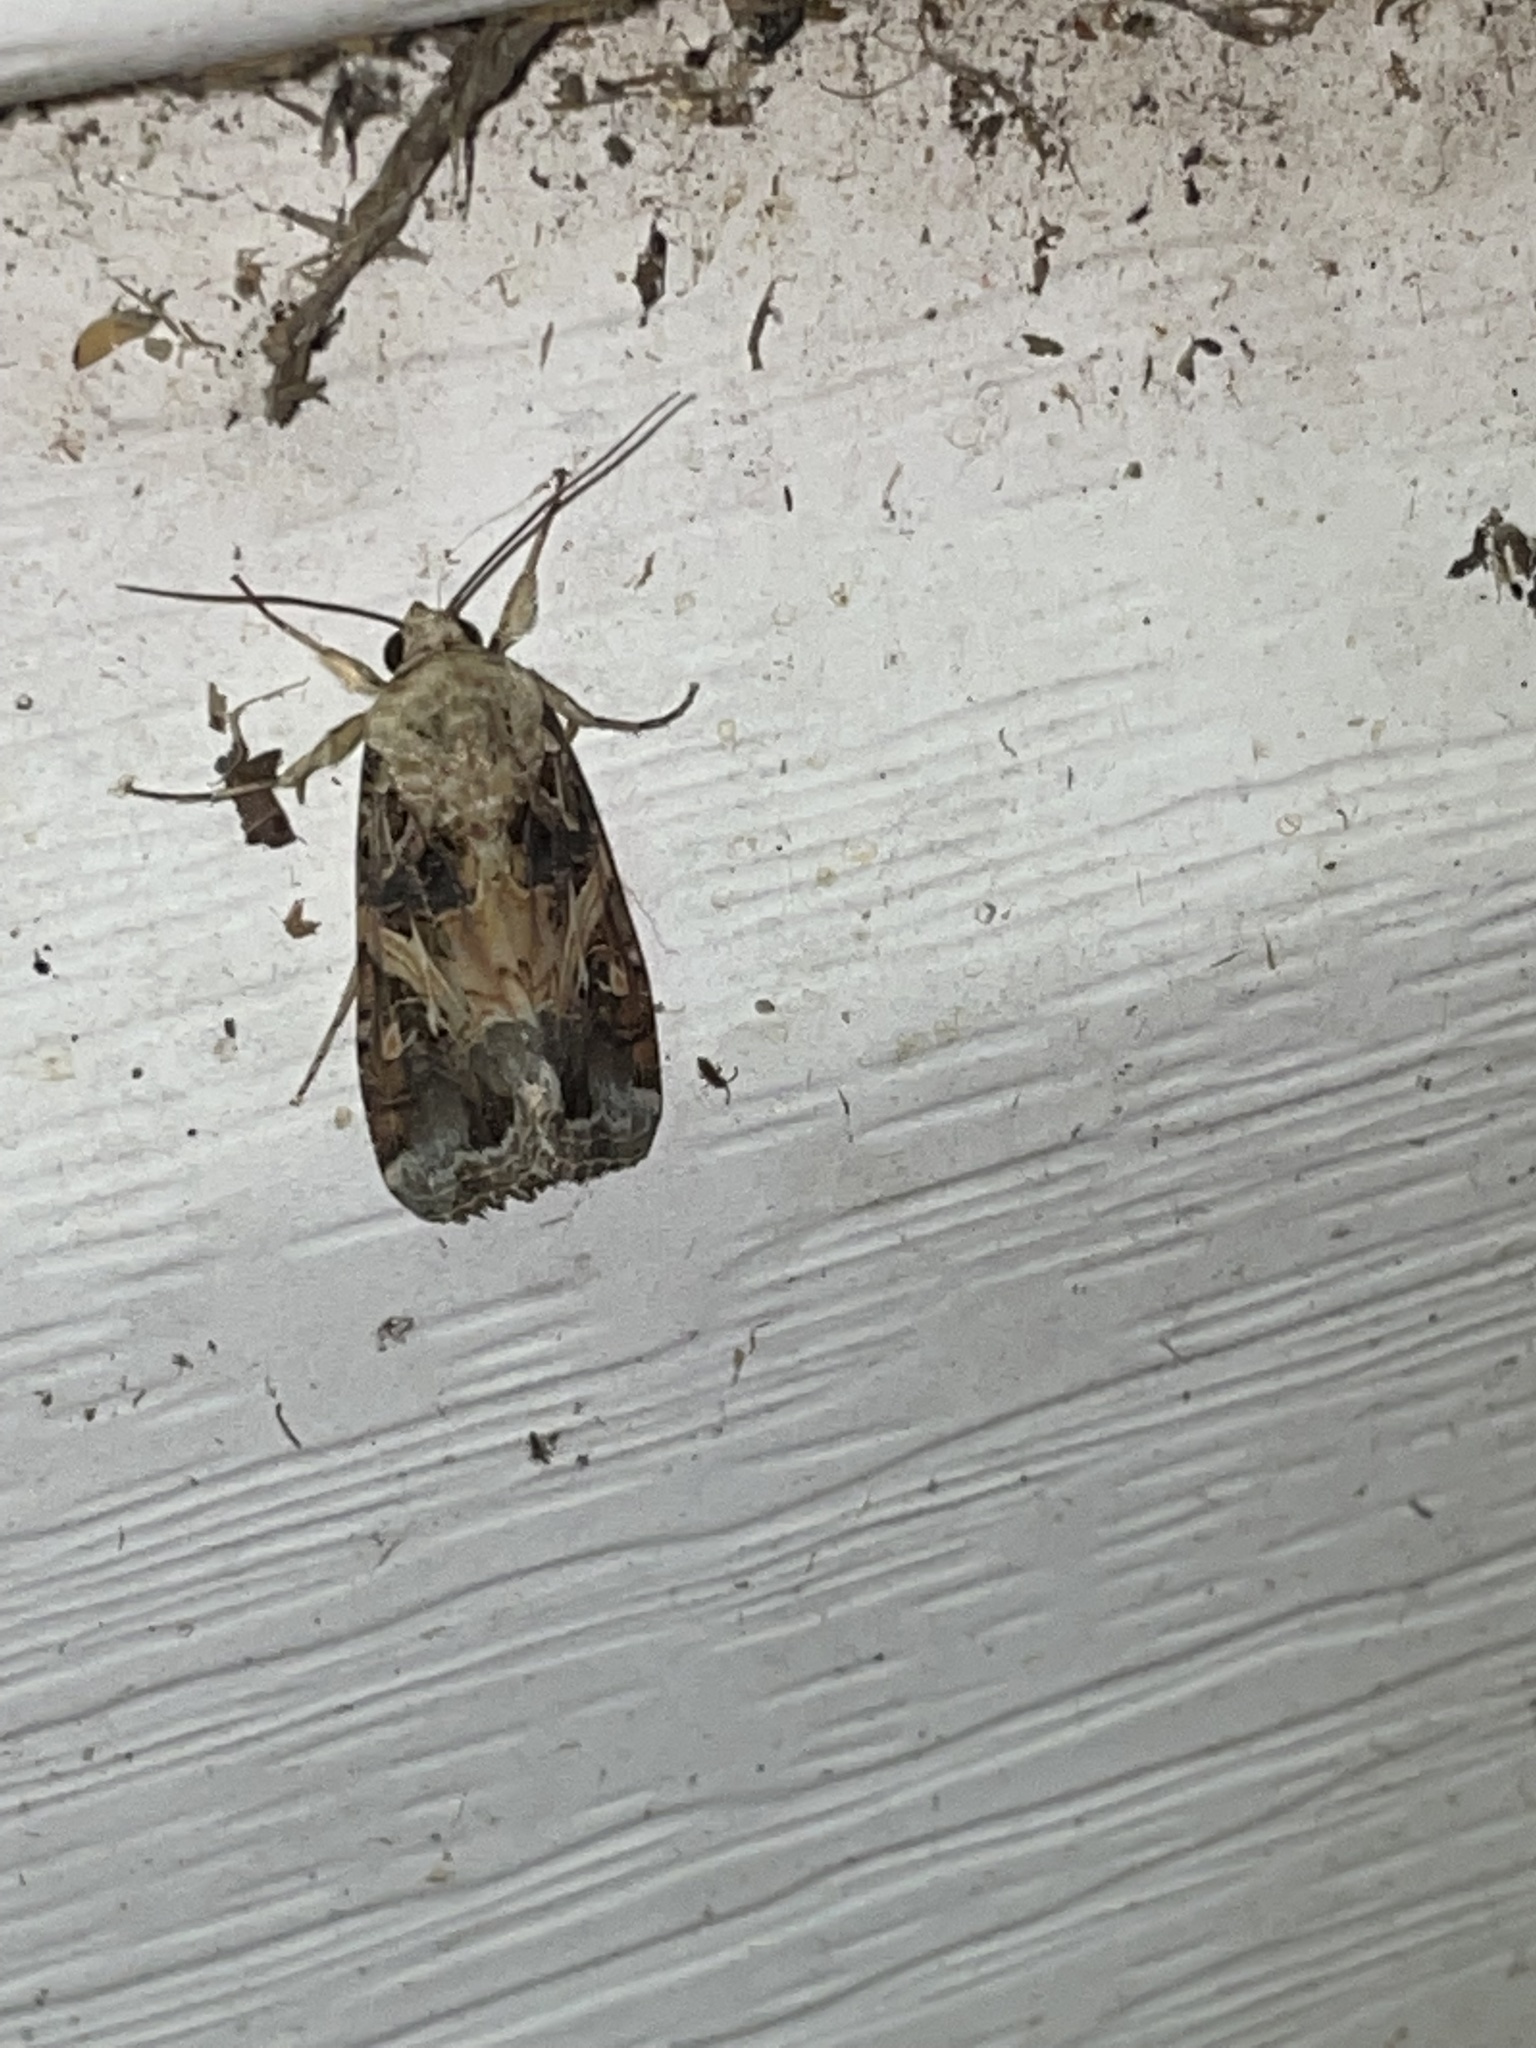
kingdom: Animalia
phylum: Arthropoda
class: Insecta
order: Lepidoptera
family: Noctuidae
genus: Spodoptera
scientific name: Spodoptera ornithogalli
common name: Yellow-striped armyworm
